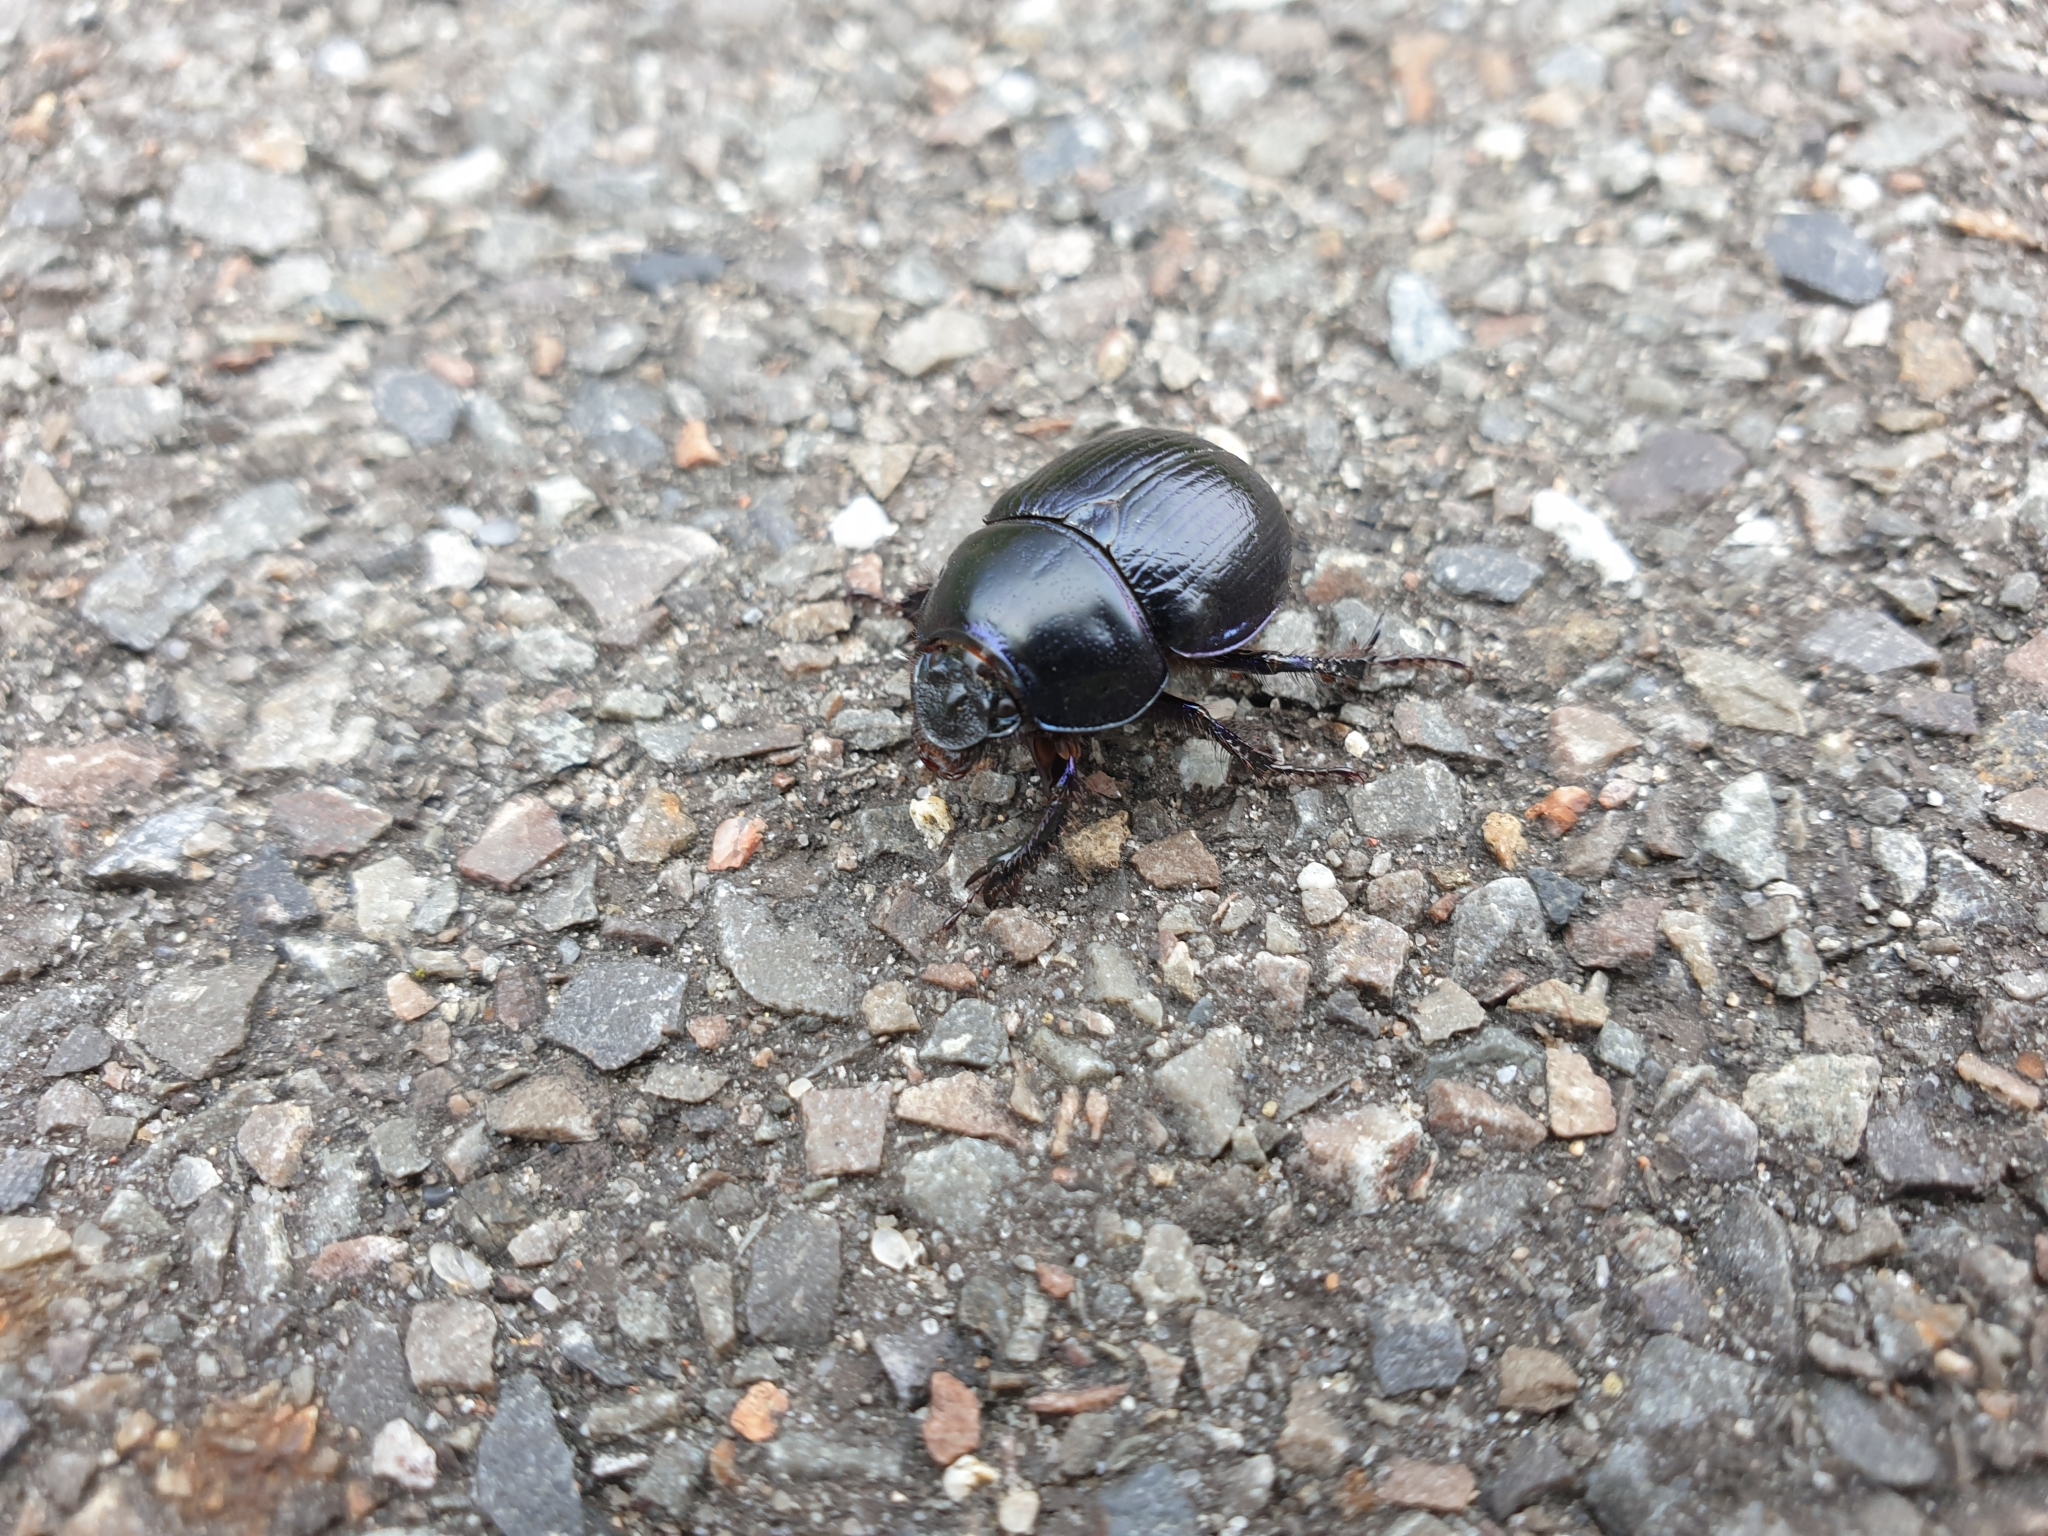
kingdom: Animalia
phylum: Arthropoda
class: Insecta
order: Coleoptera
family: Geotrupidae
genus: Anoplotrupes
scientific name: Anoplotrupes stercorosus
